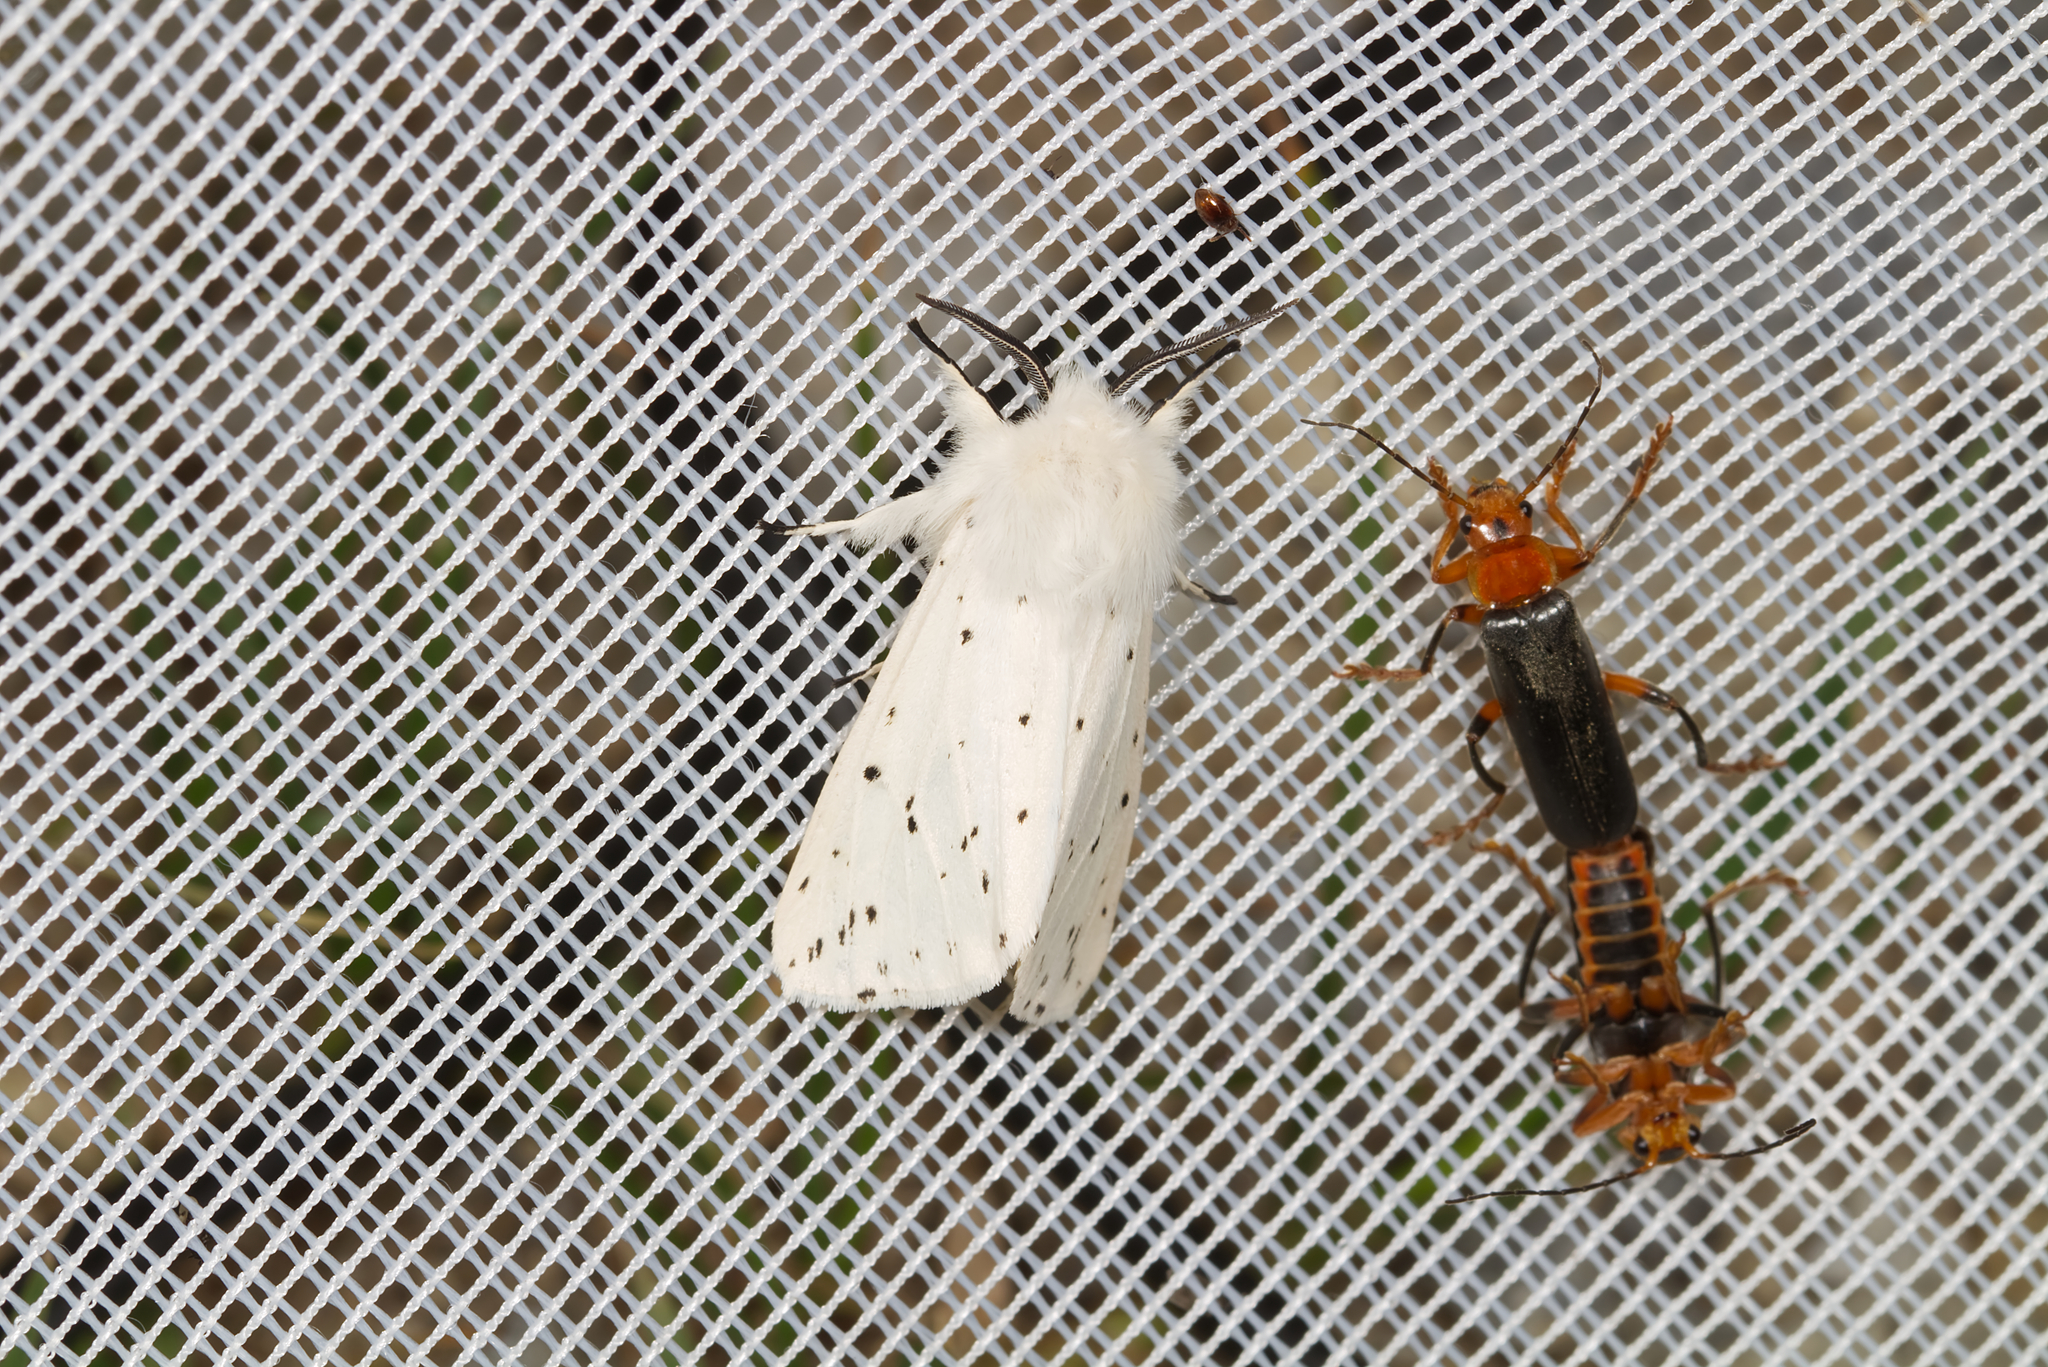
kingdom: Animalia
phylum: Arthropoda
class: Insecta
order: Lepidoptera
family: Erebidae
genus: Spilosoma
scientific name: Spilosoma lubricipeda
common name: White ermine
